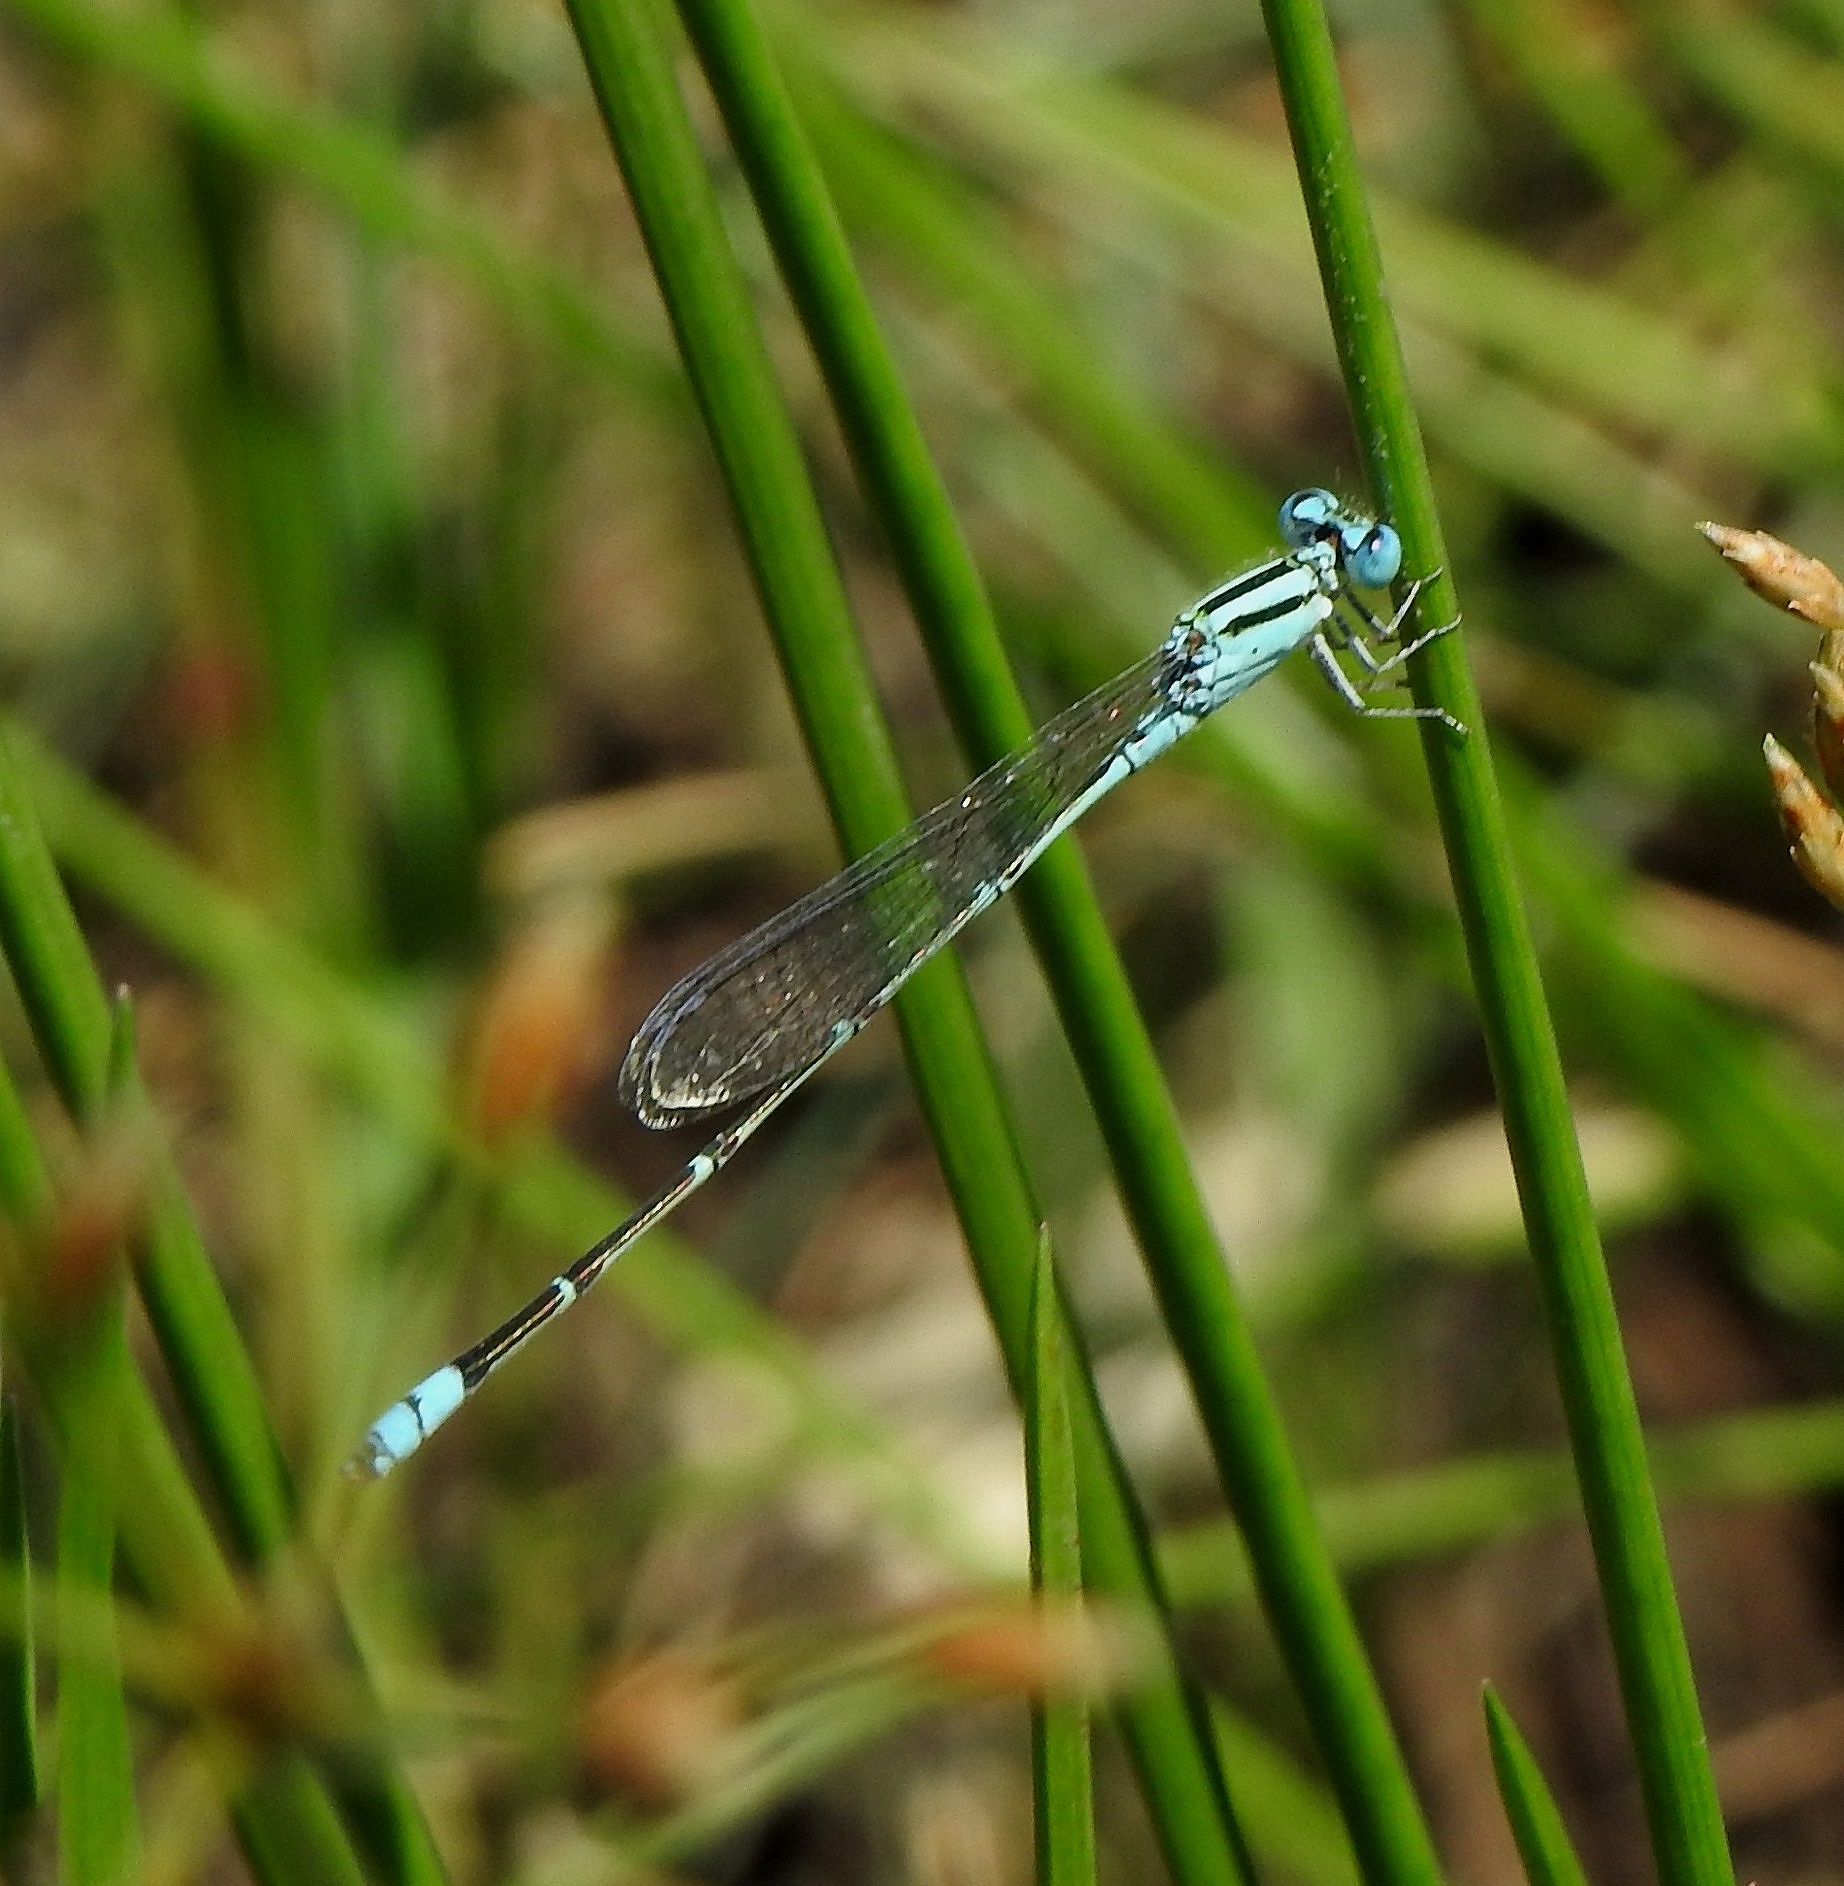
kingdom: Animalia
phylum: Arthropoda
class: Insecta
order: Odonata
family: Coenagrionidae
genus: Pseudagrion
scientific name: Pseudagrion microcephalum
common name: Blue riverdamsel
